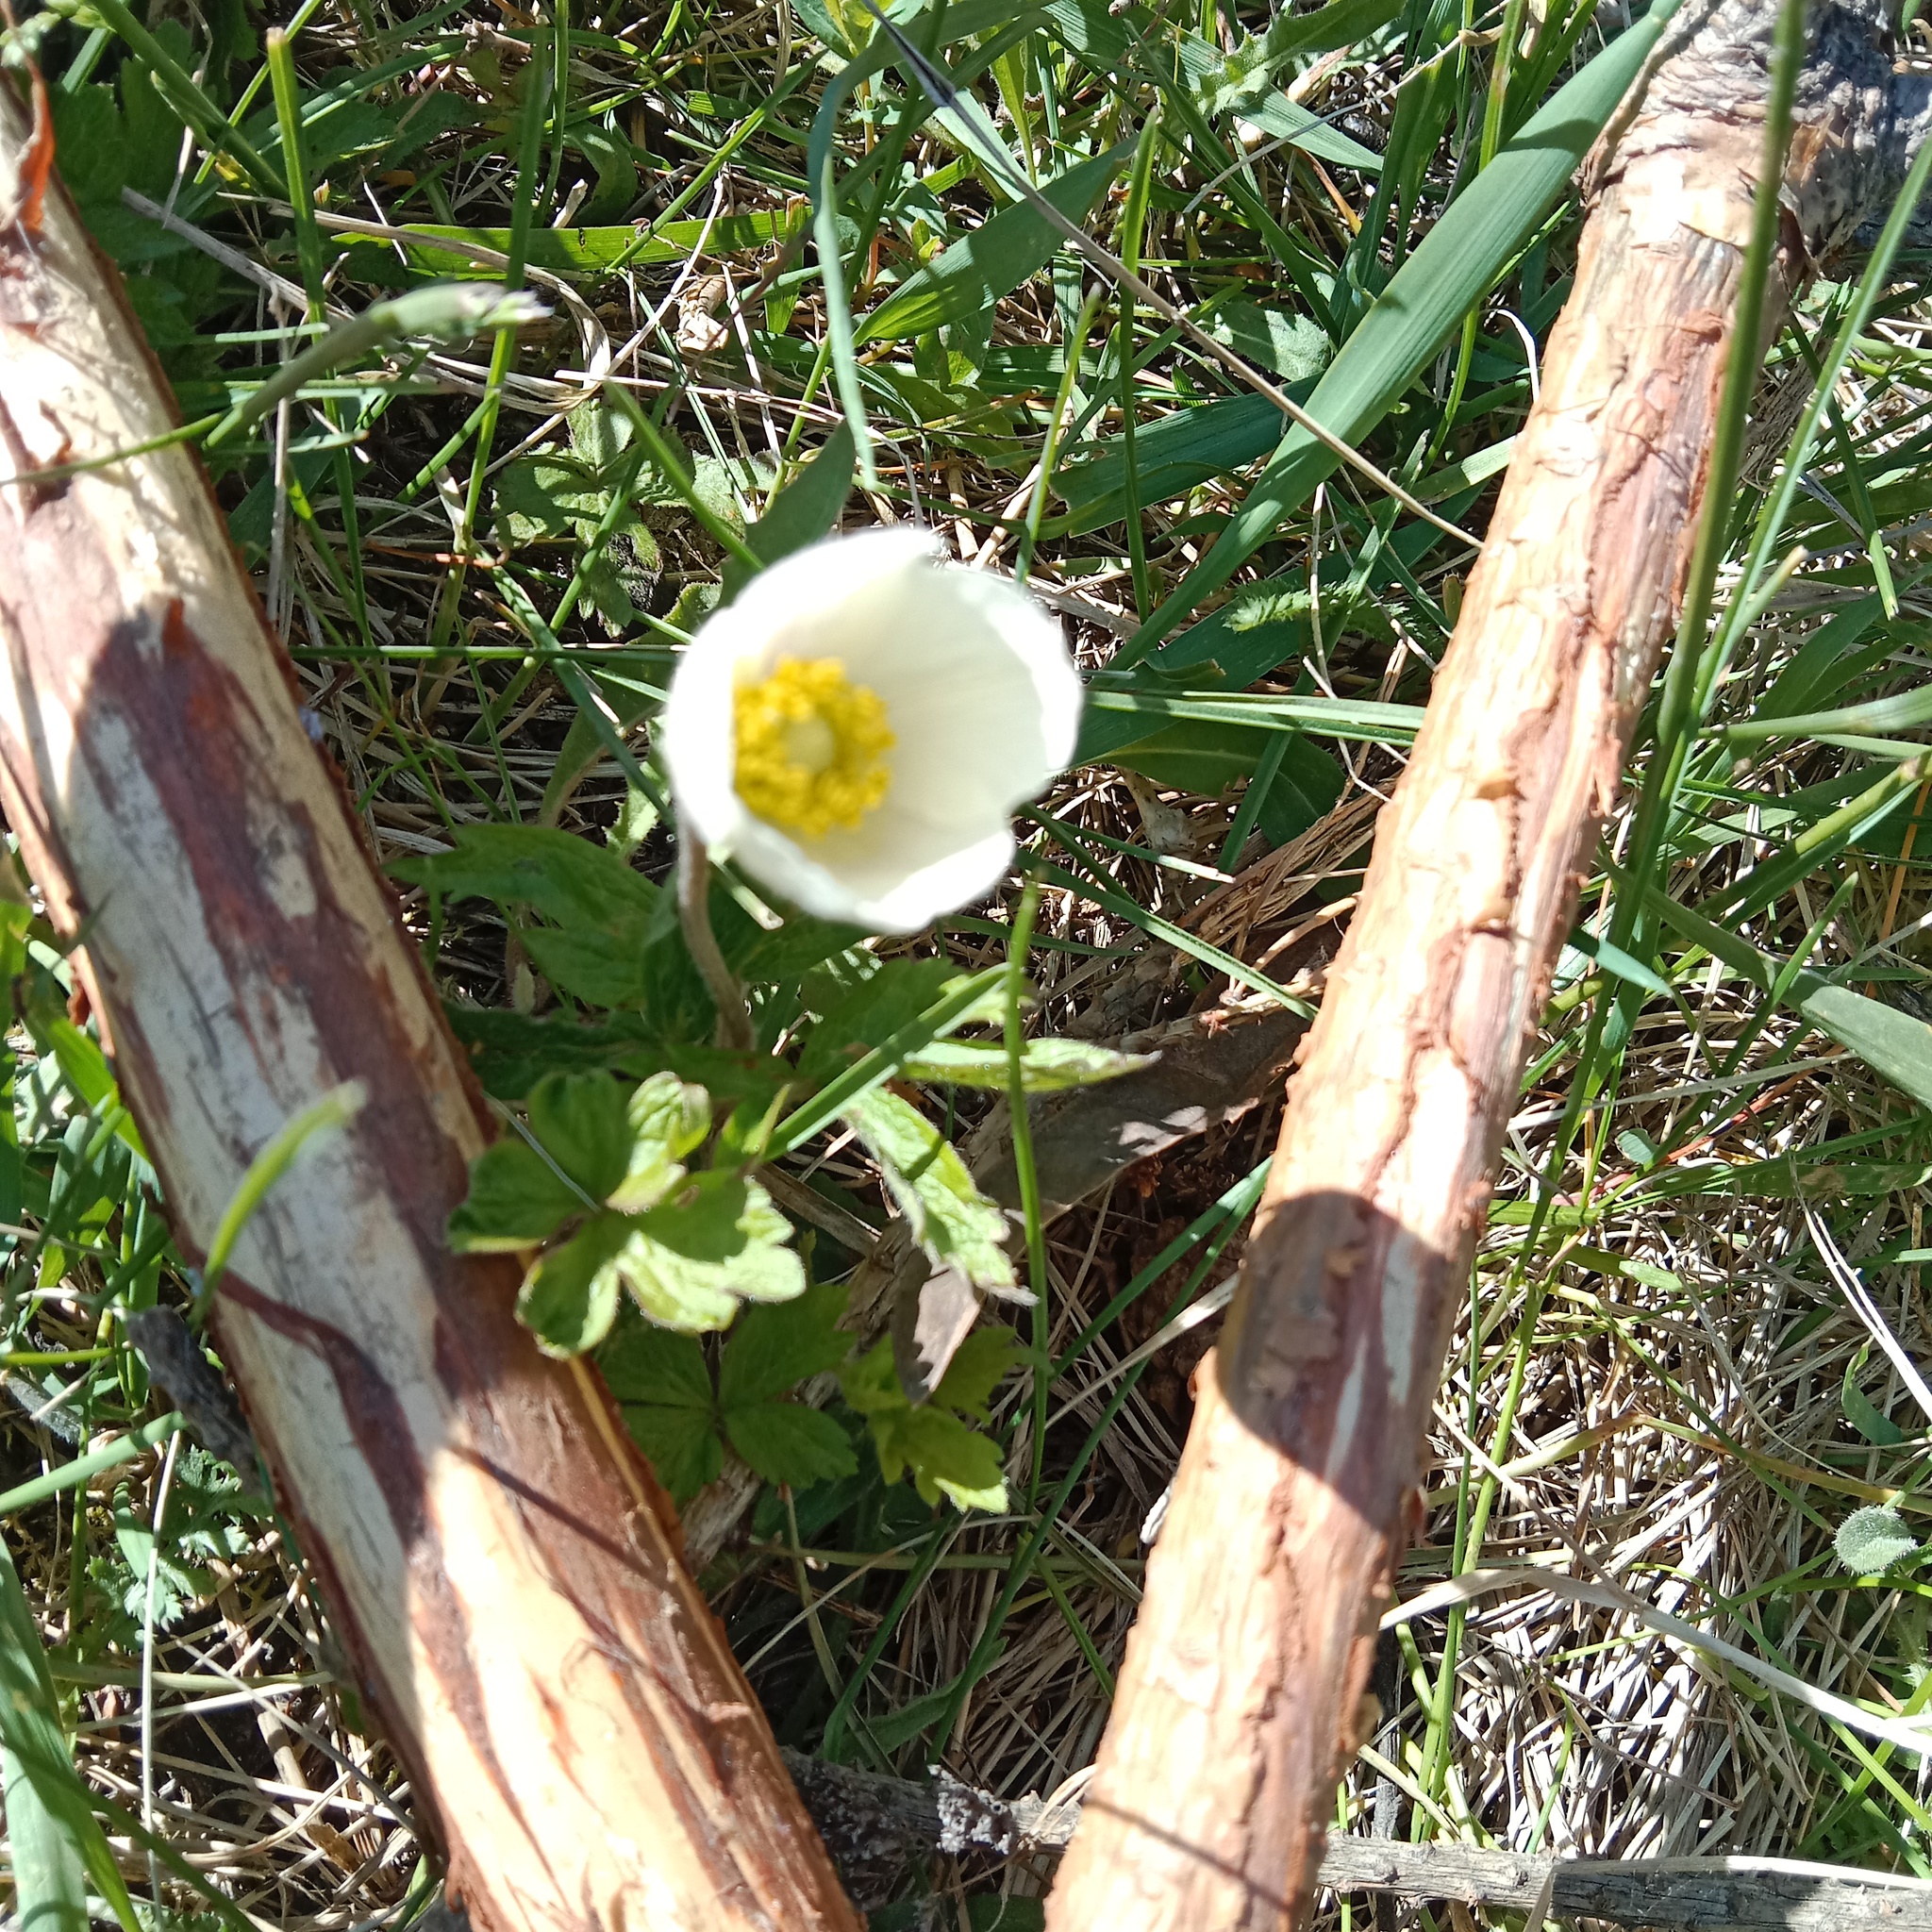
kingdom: Plantae
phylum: Tracheophyta
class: Magnoliopsida
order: Ranunculales
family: Ranunculaceae
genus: Anemone
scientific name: Anemone sylvestris
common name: Snowdrop anemone
